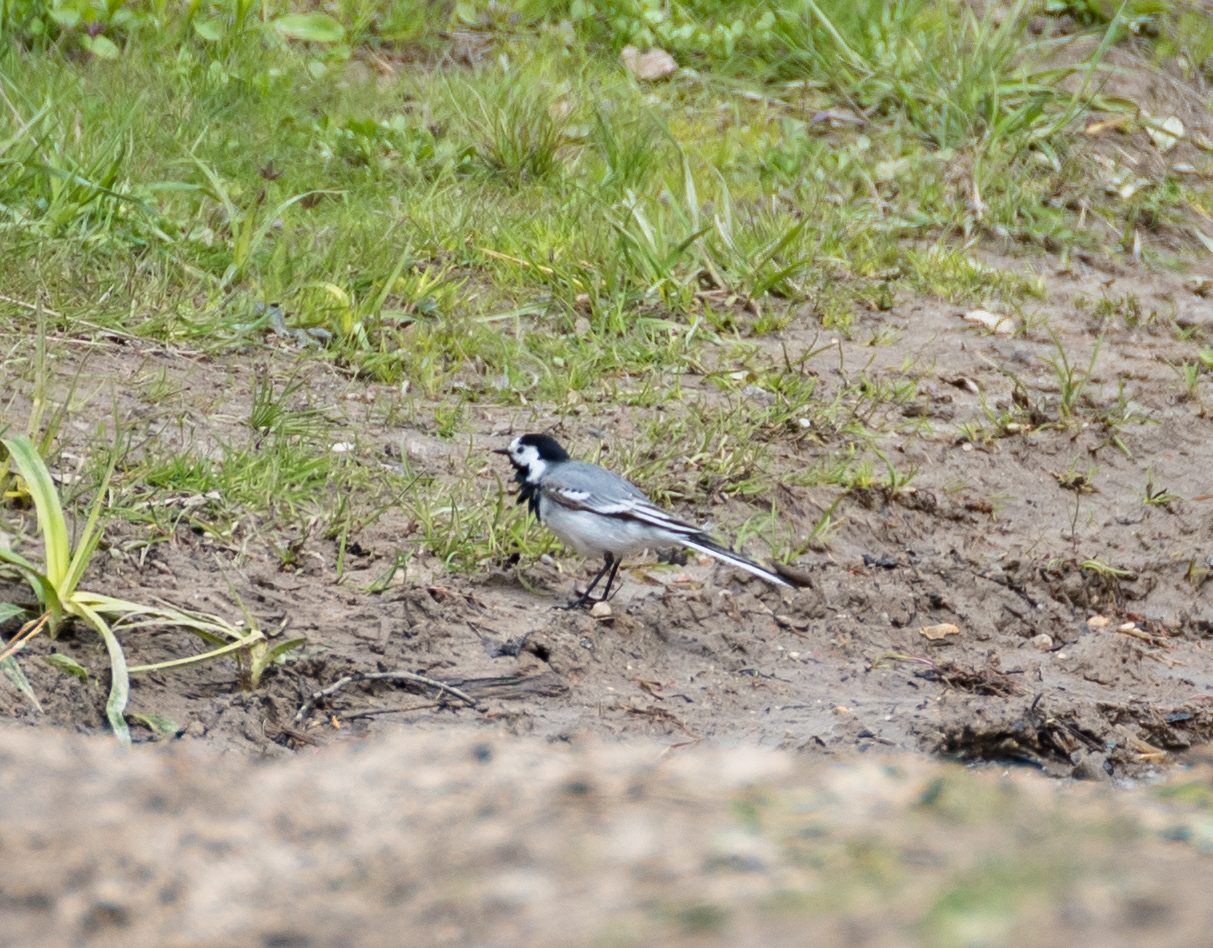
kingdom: Animalia
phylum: Chordata
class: Aves
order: Passeriformes
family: Motacillidae
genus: Motacilla
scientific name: Motacilla alba
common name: White wagtail
